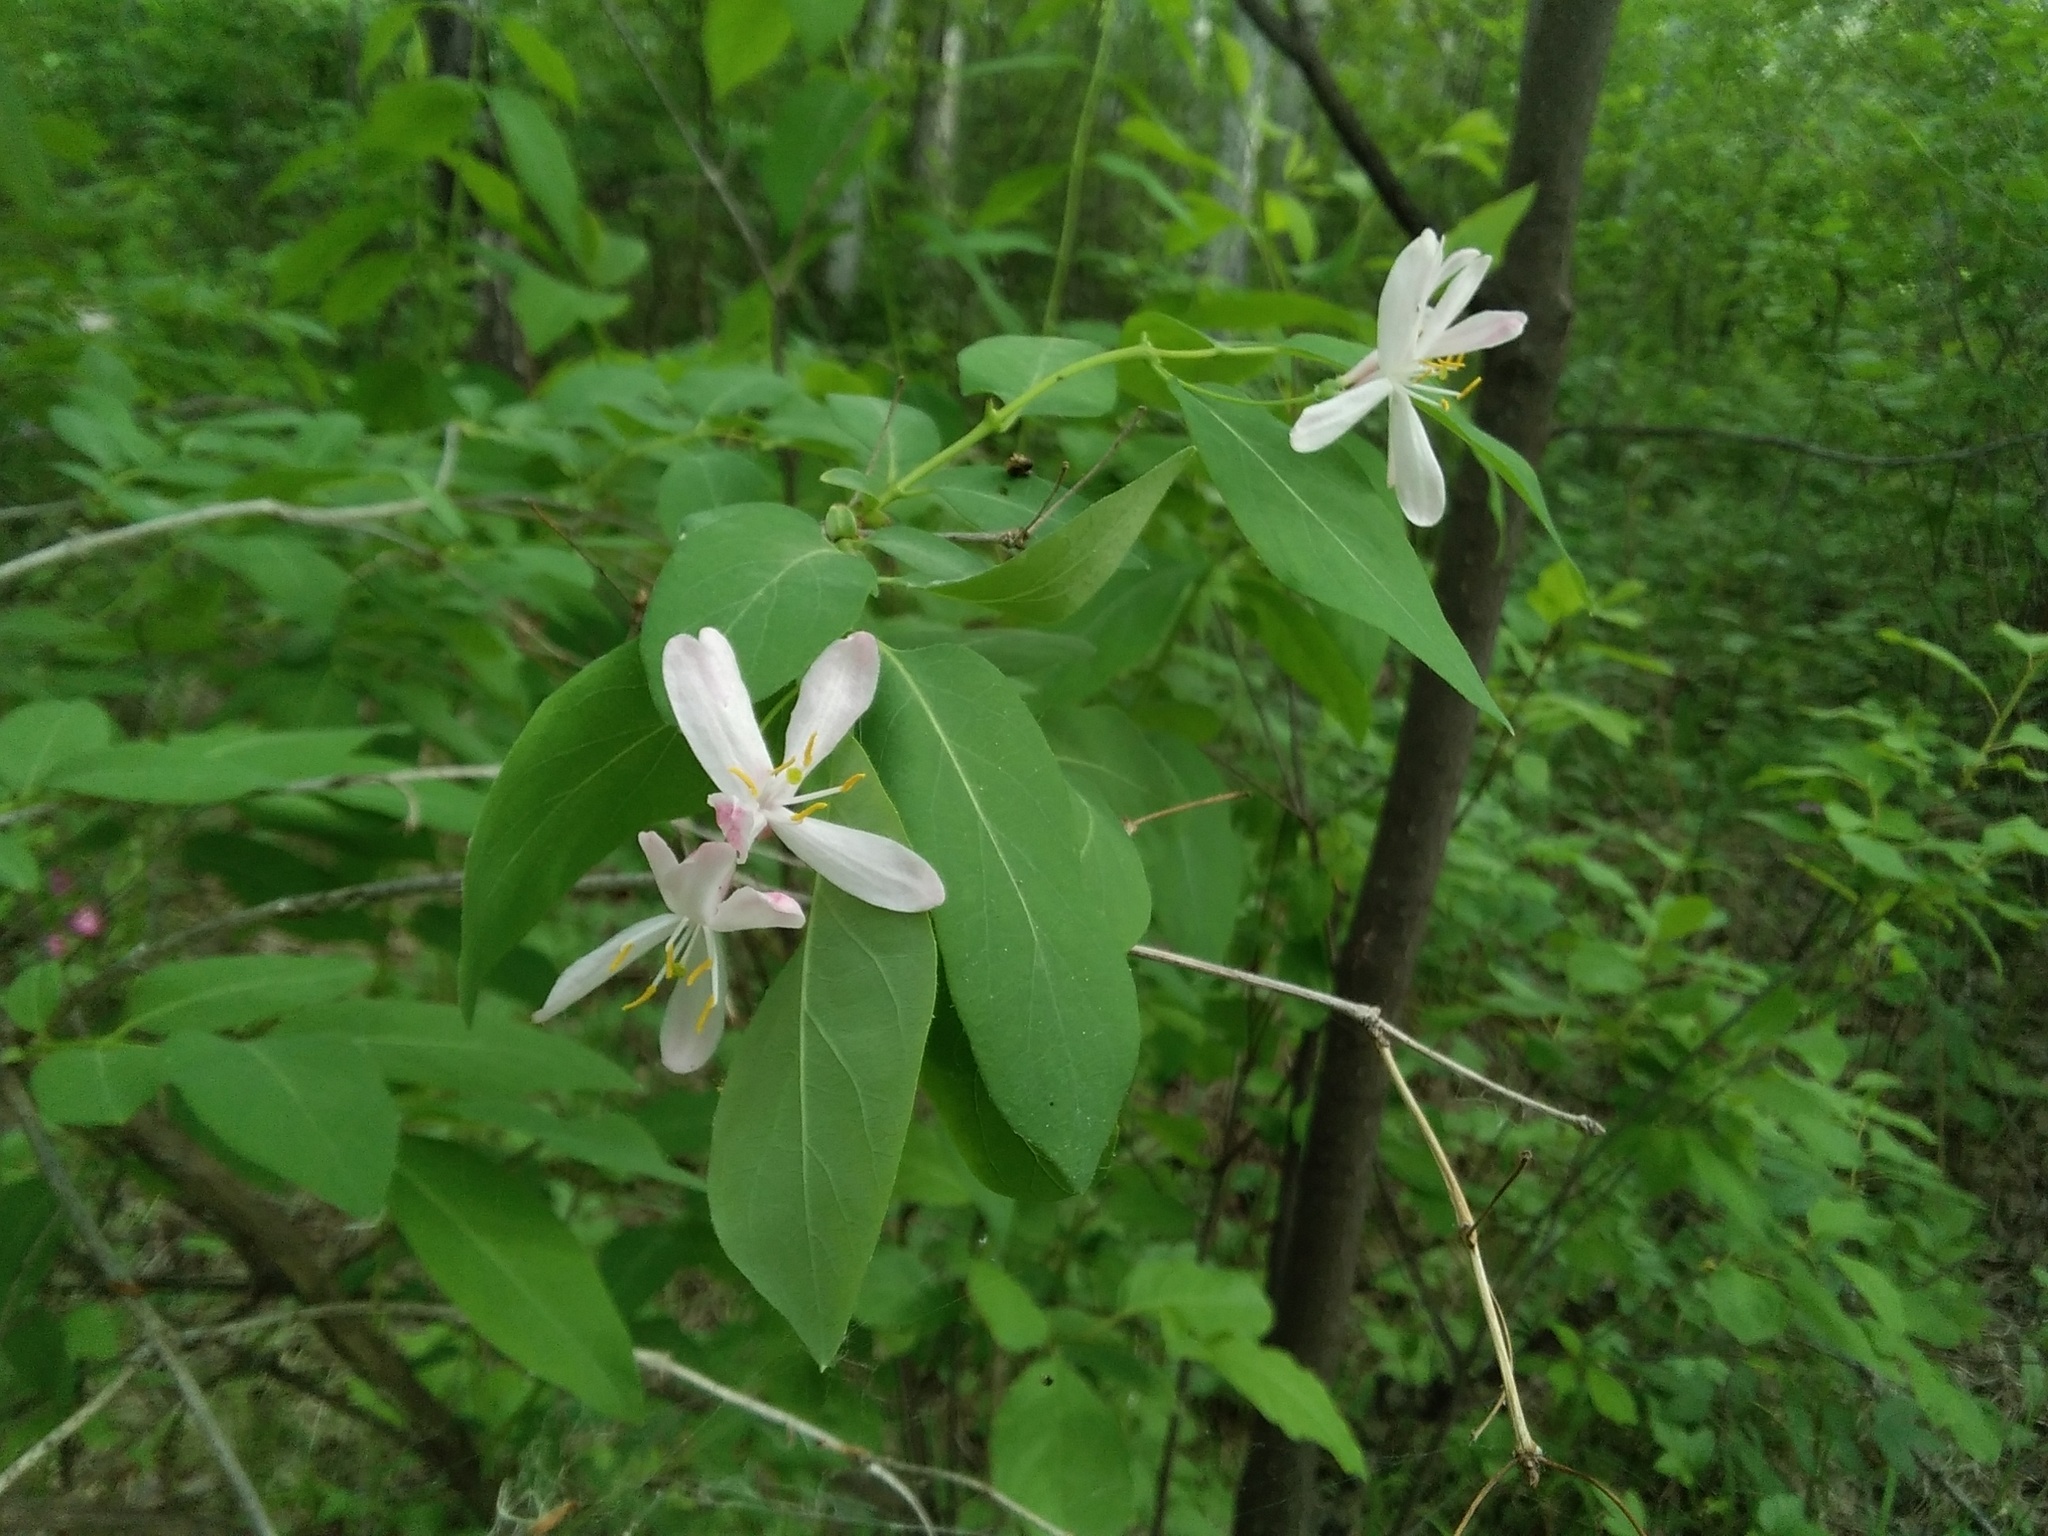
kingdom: Plantae
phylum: Tracheophyta
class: Magnoliopsida
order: Dipsacales
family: Caprifoliaceae
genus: Lonicera
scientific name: Lonicera tatarica
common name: Tatarian honeysuckle
